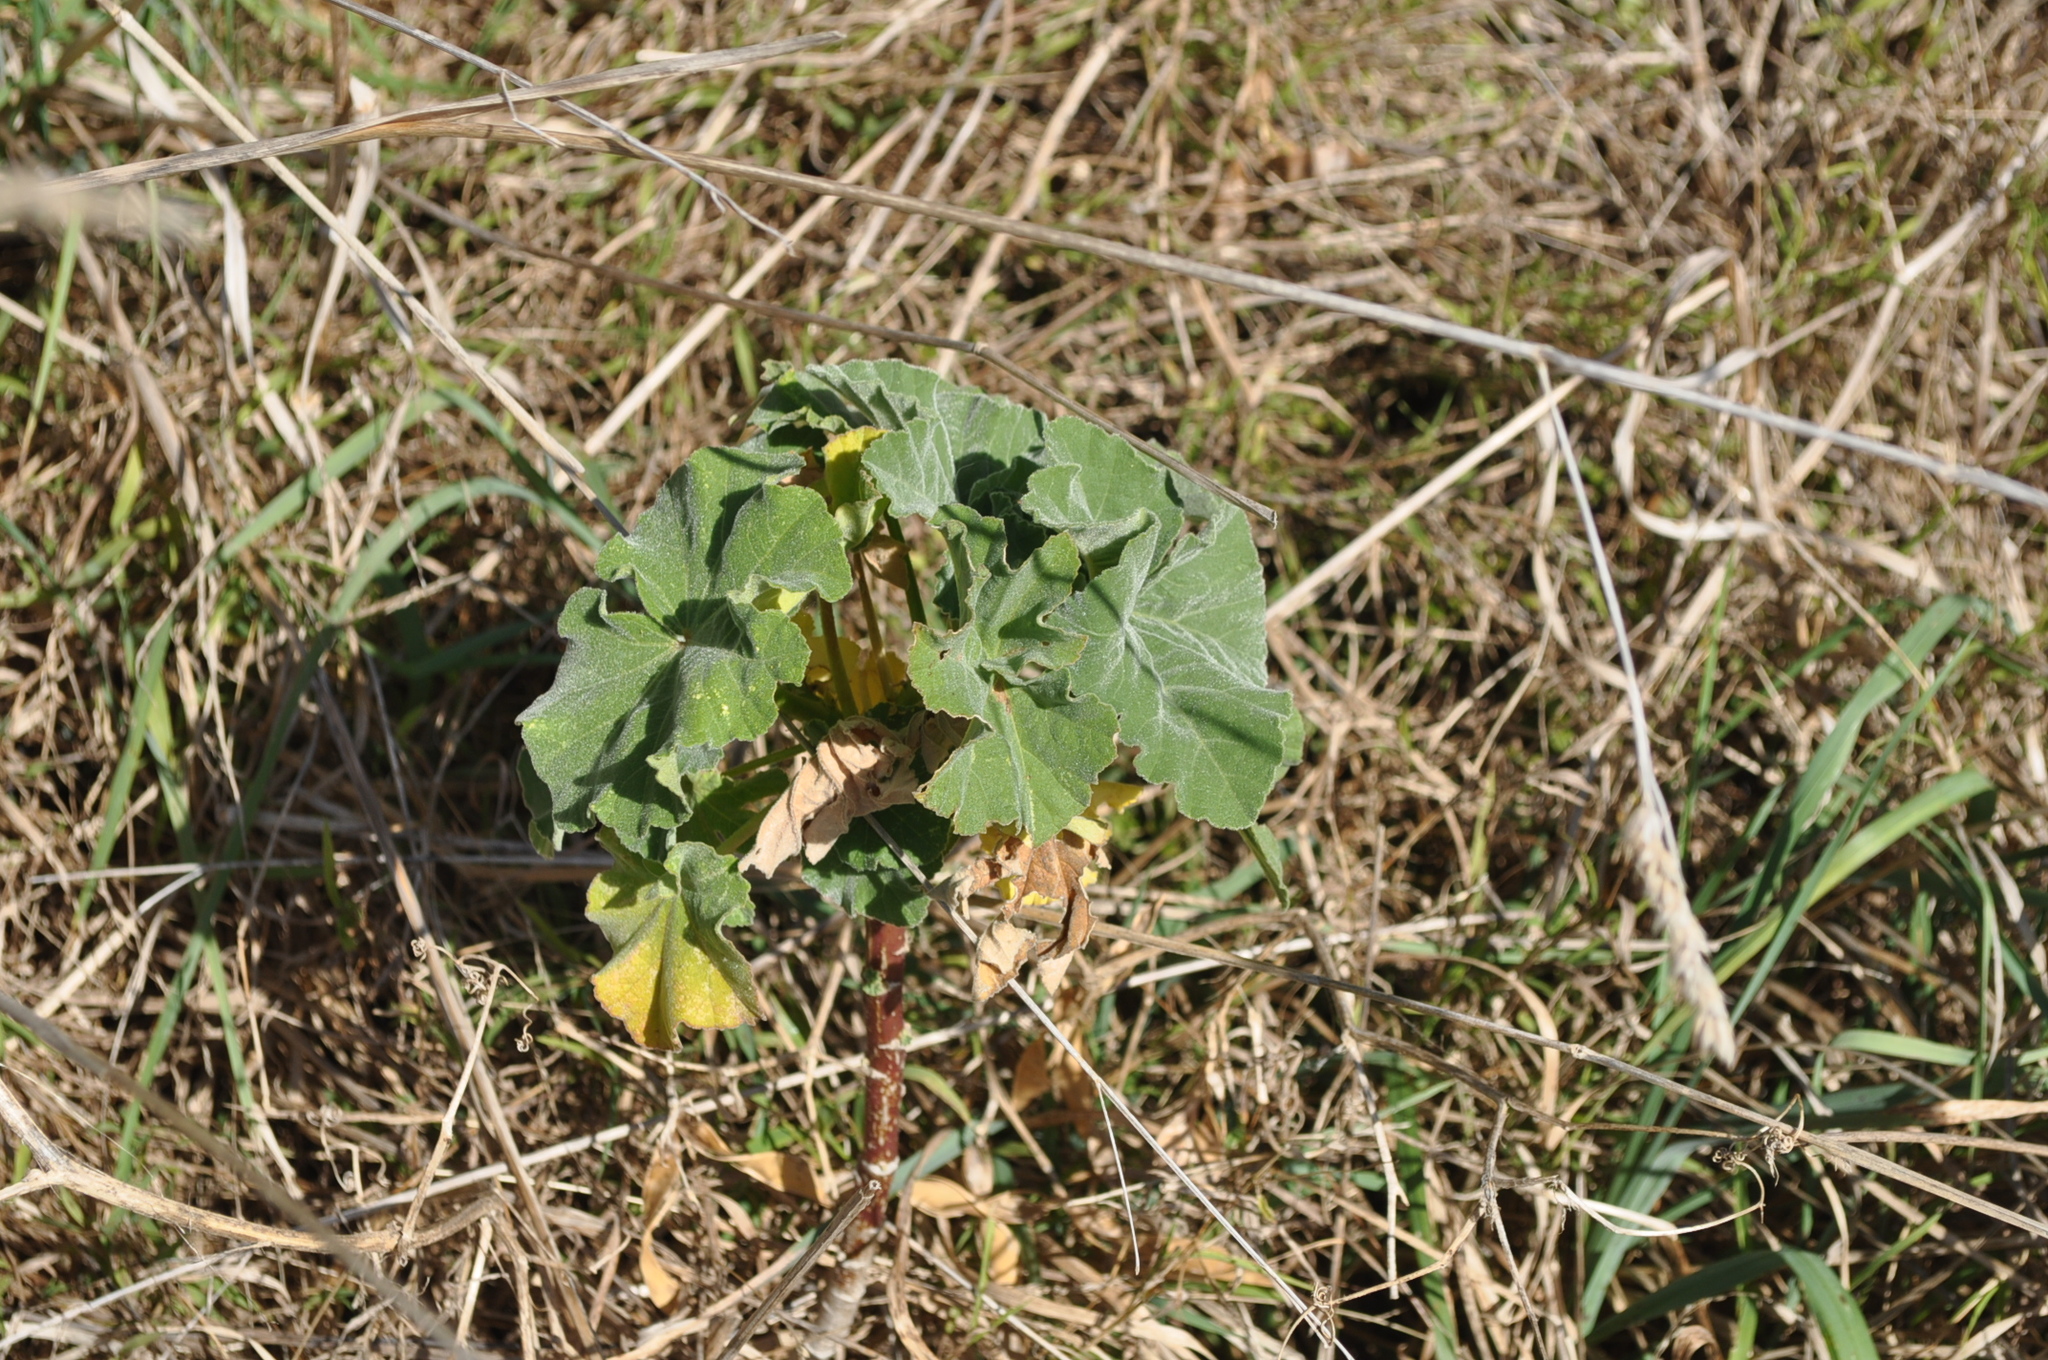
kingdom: Plantae
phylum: Tracheophyta
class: Magnoliopsida
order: Malvales
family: Malvaceae
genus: Malva
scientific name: Malva arborea
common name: Tree mallow
